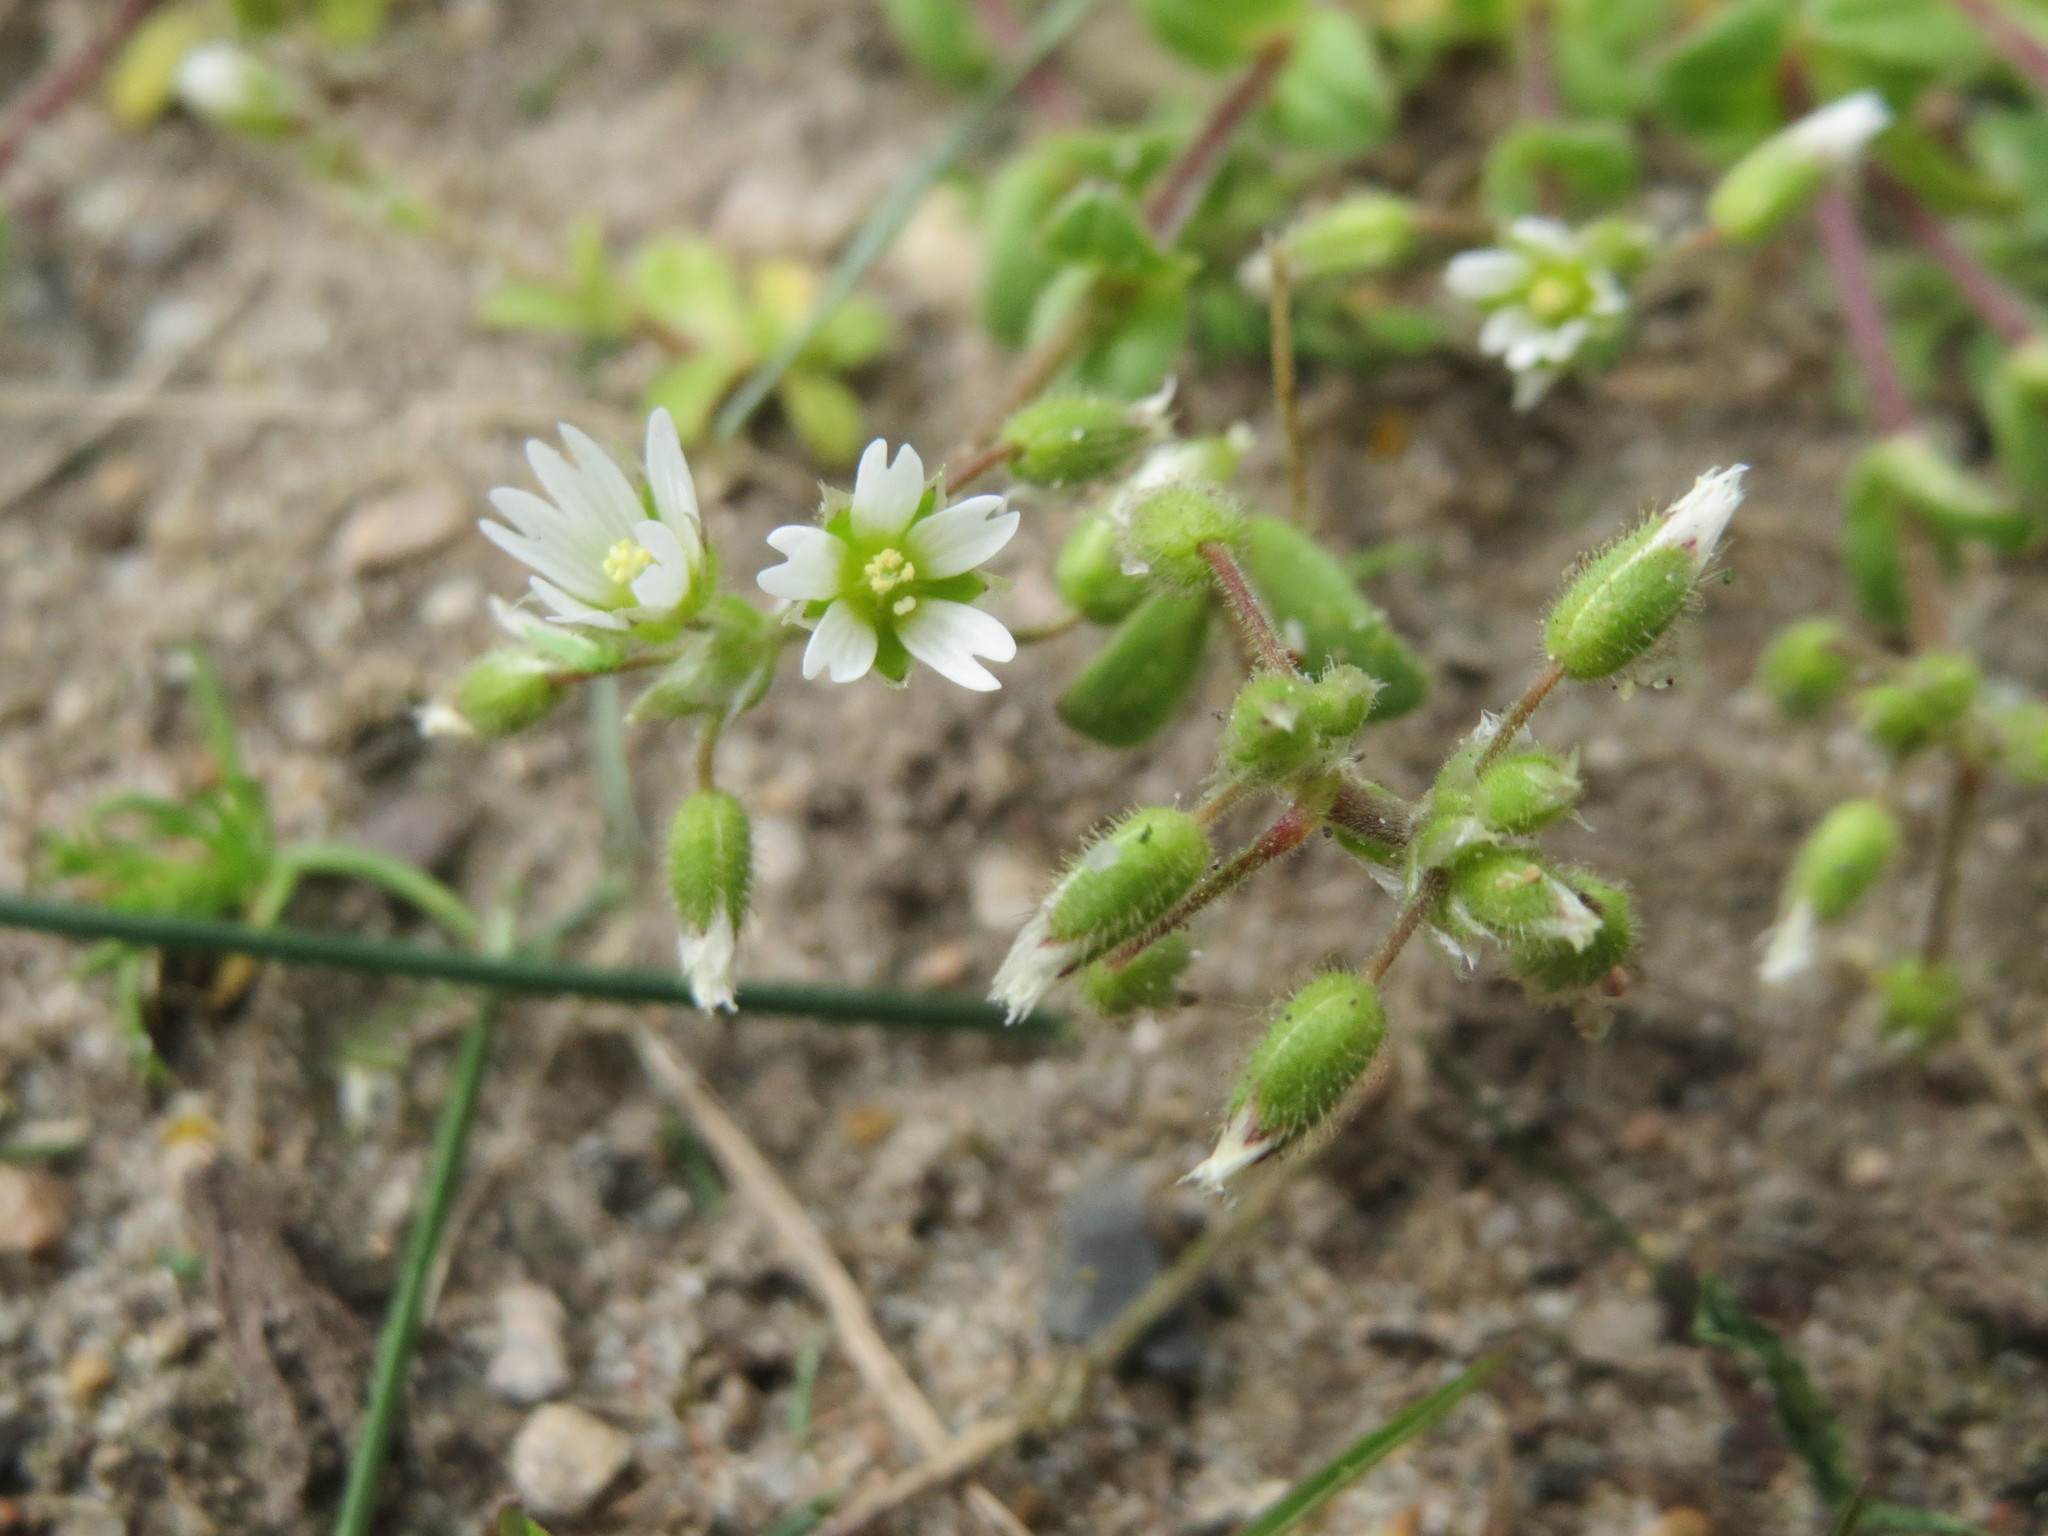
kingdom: Plantae
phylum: Tracheophyta
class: Magnoliopsida
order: Caryophyllales
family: Caryophyllaceae
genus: Cerastium
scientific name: Cerastium semidecandrum
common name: Little mouse-ear
